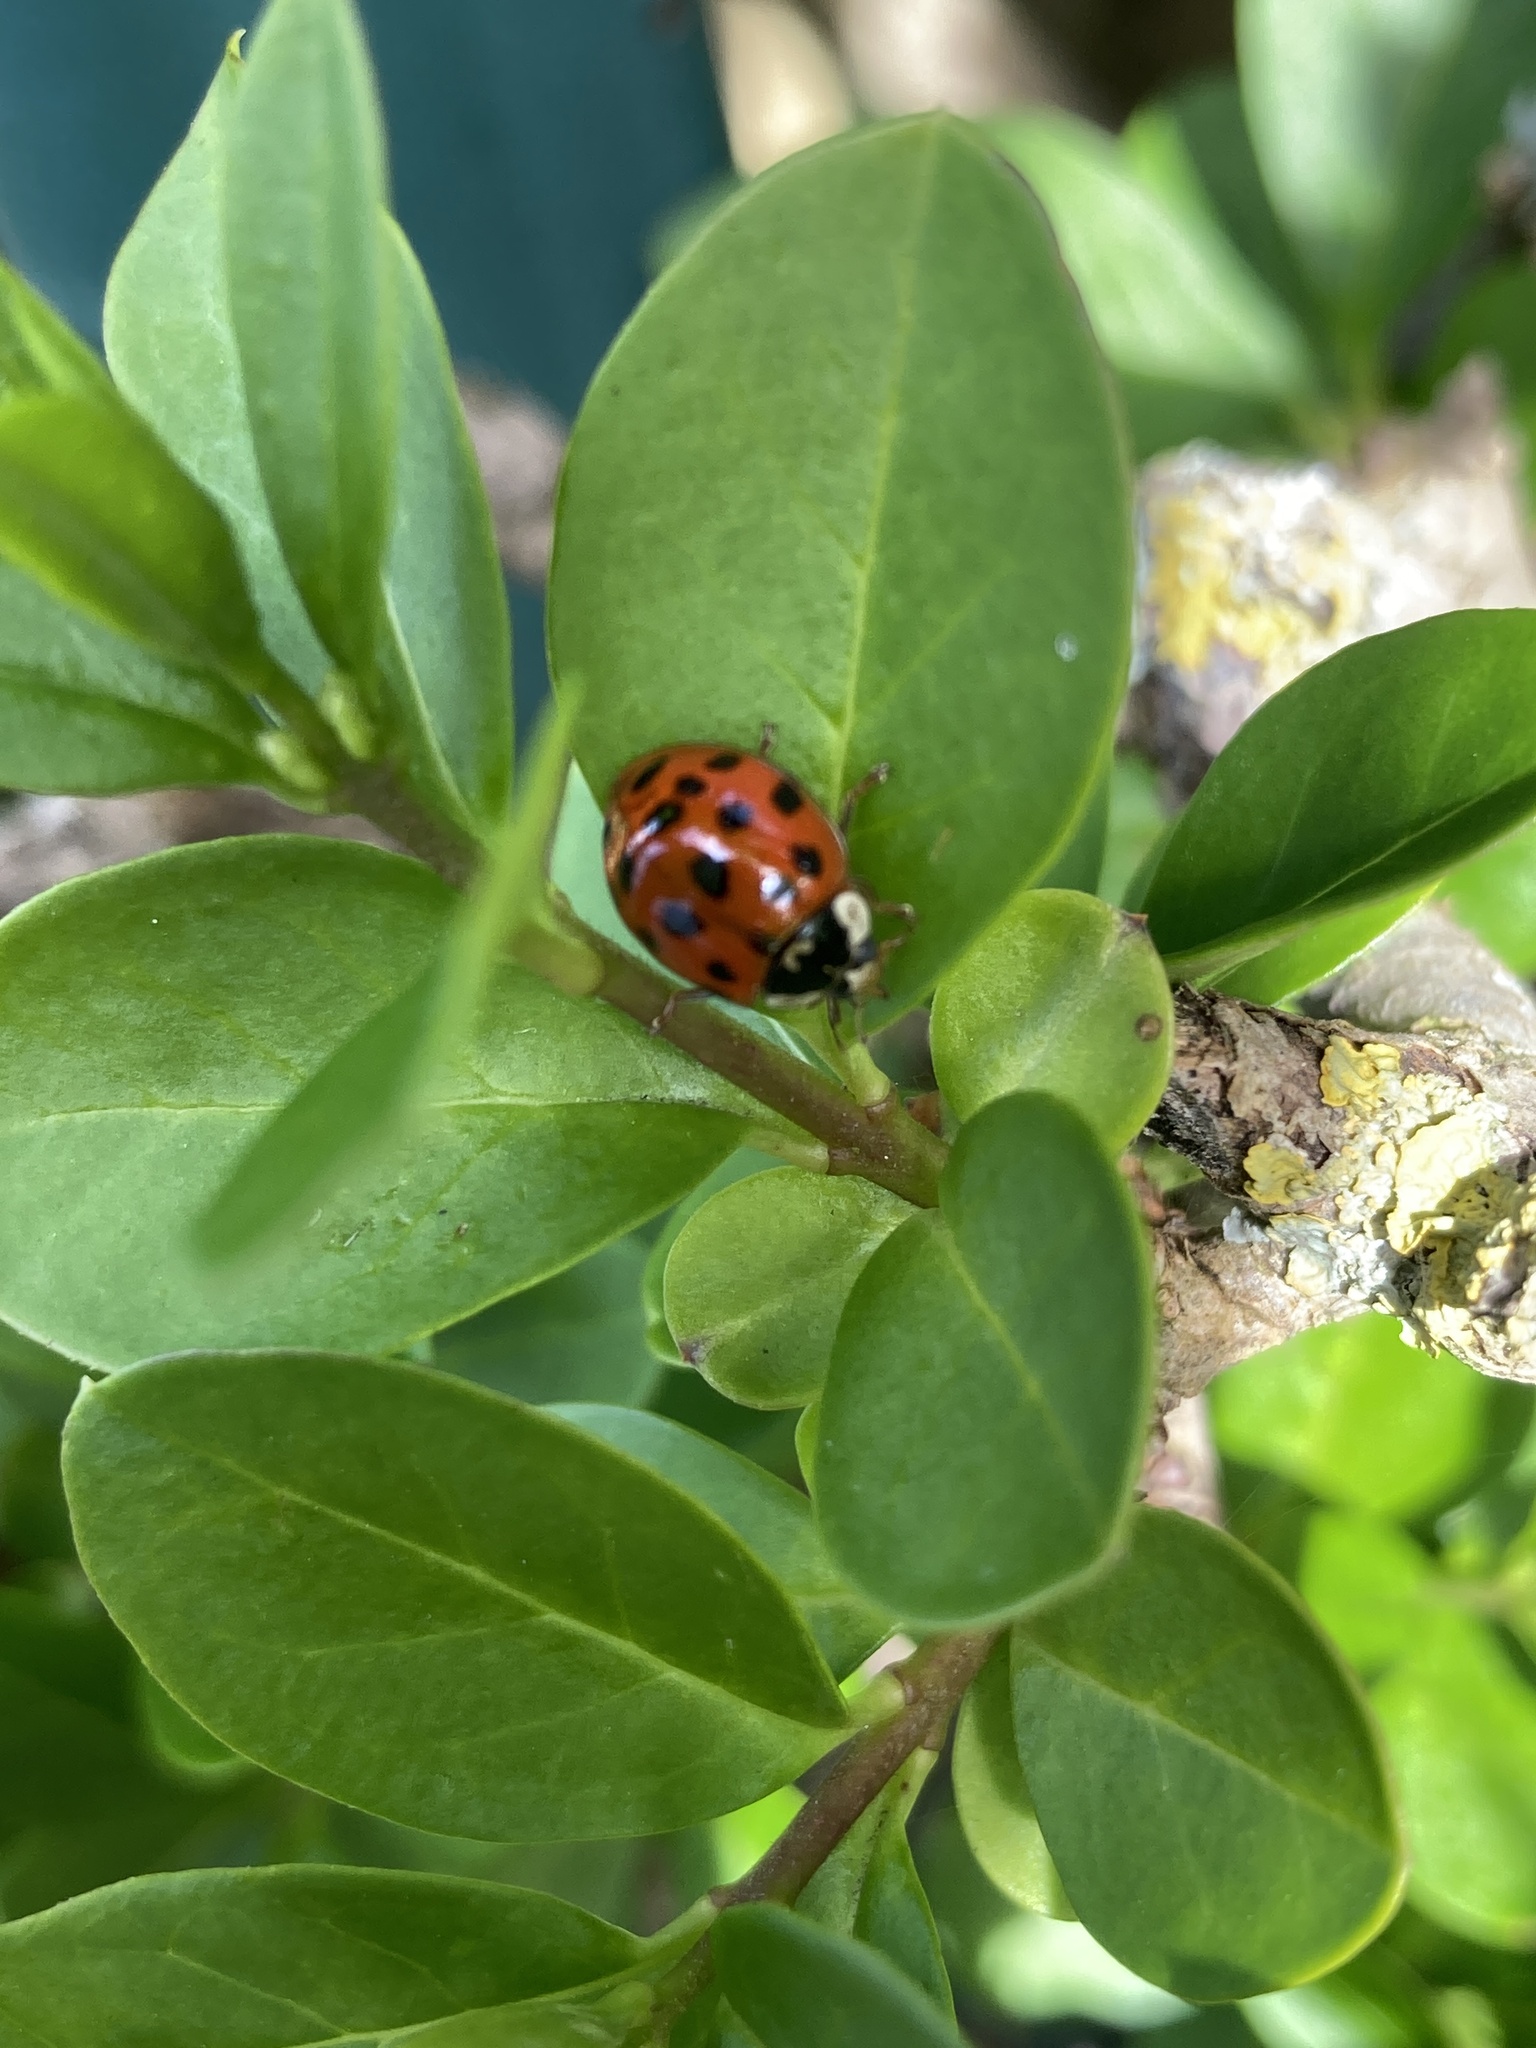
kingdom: Animalia
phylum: Arthropoda
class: Insecta
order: Coleoptera
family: Coccinellidae
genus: Harmonia
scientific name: Harmonia axyridis
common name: Harlequin ladybird
